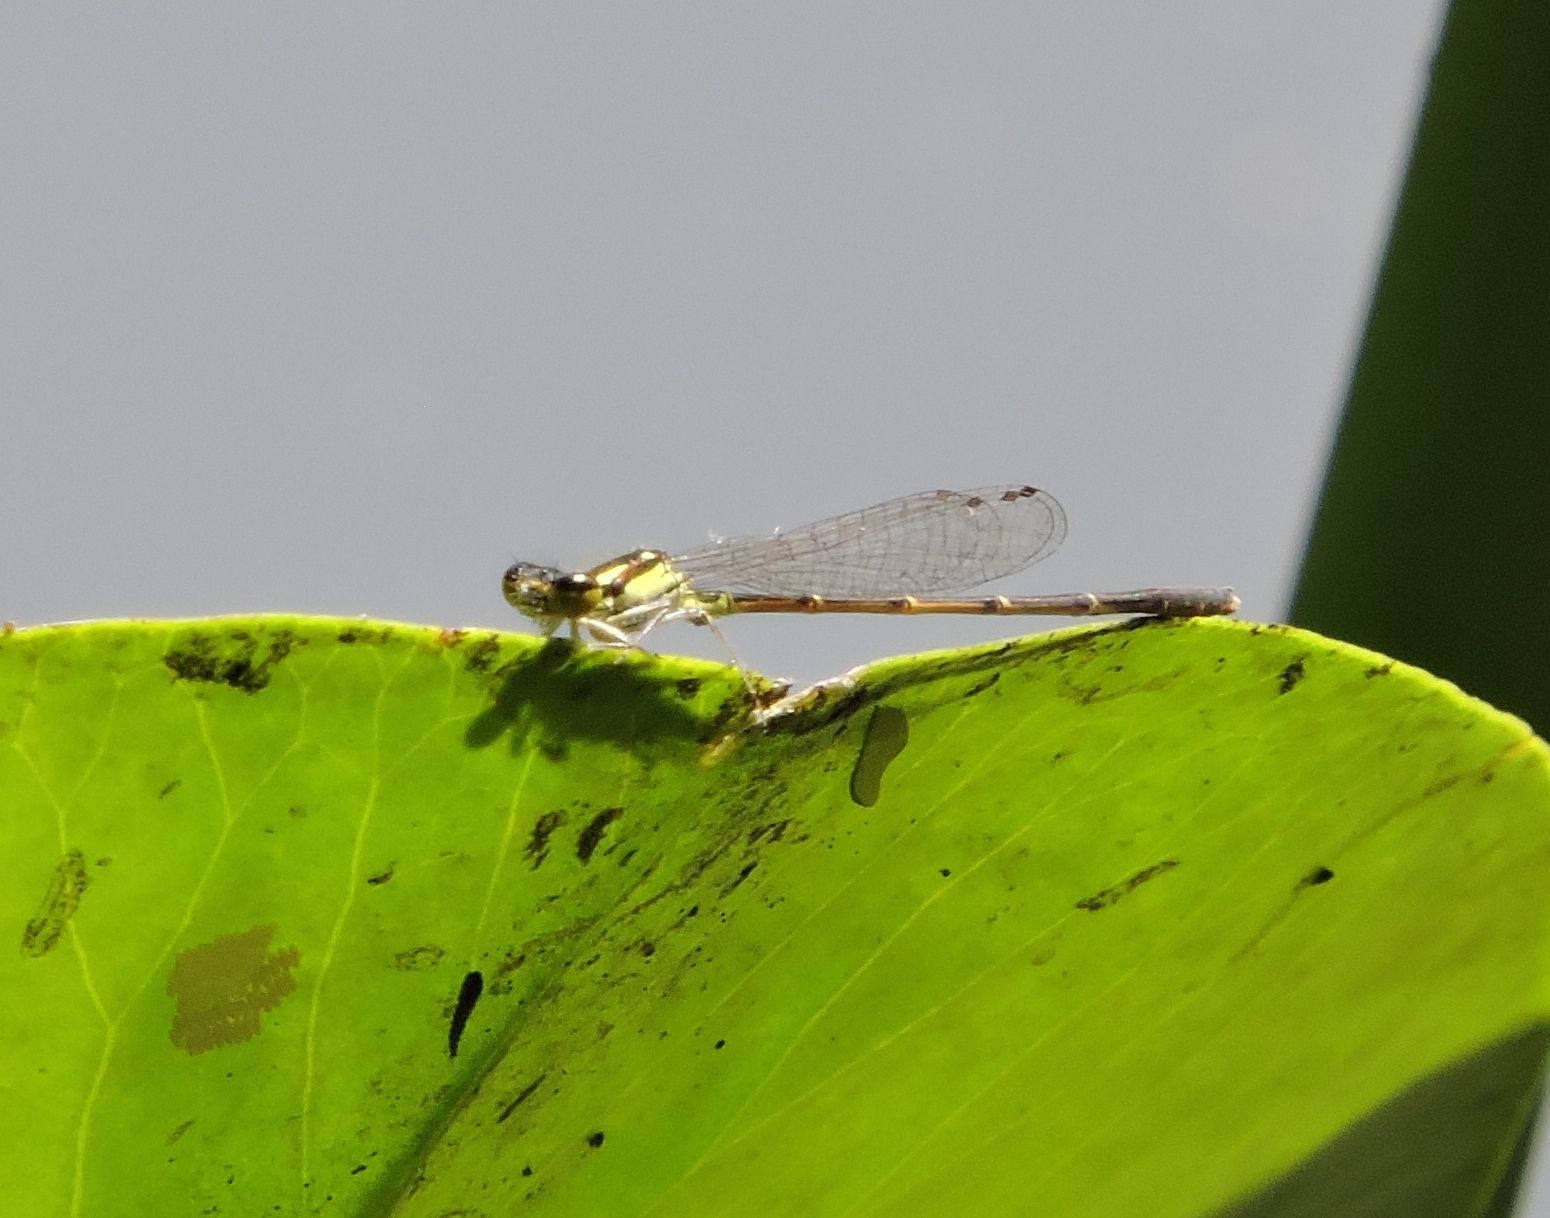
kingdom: Animalia
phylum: Arthropoda
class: Insecta
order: Odonata
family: Coenagrionidae
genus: Ischnura
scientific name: Ischnura posita
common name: Fragile forktail
